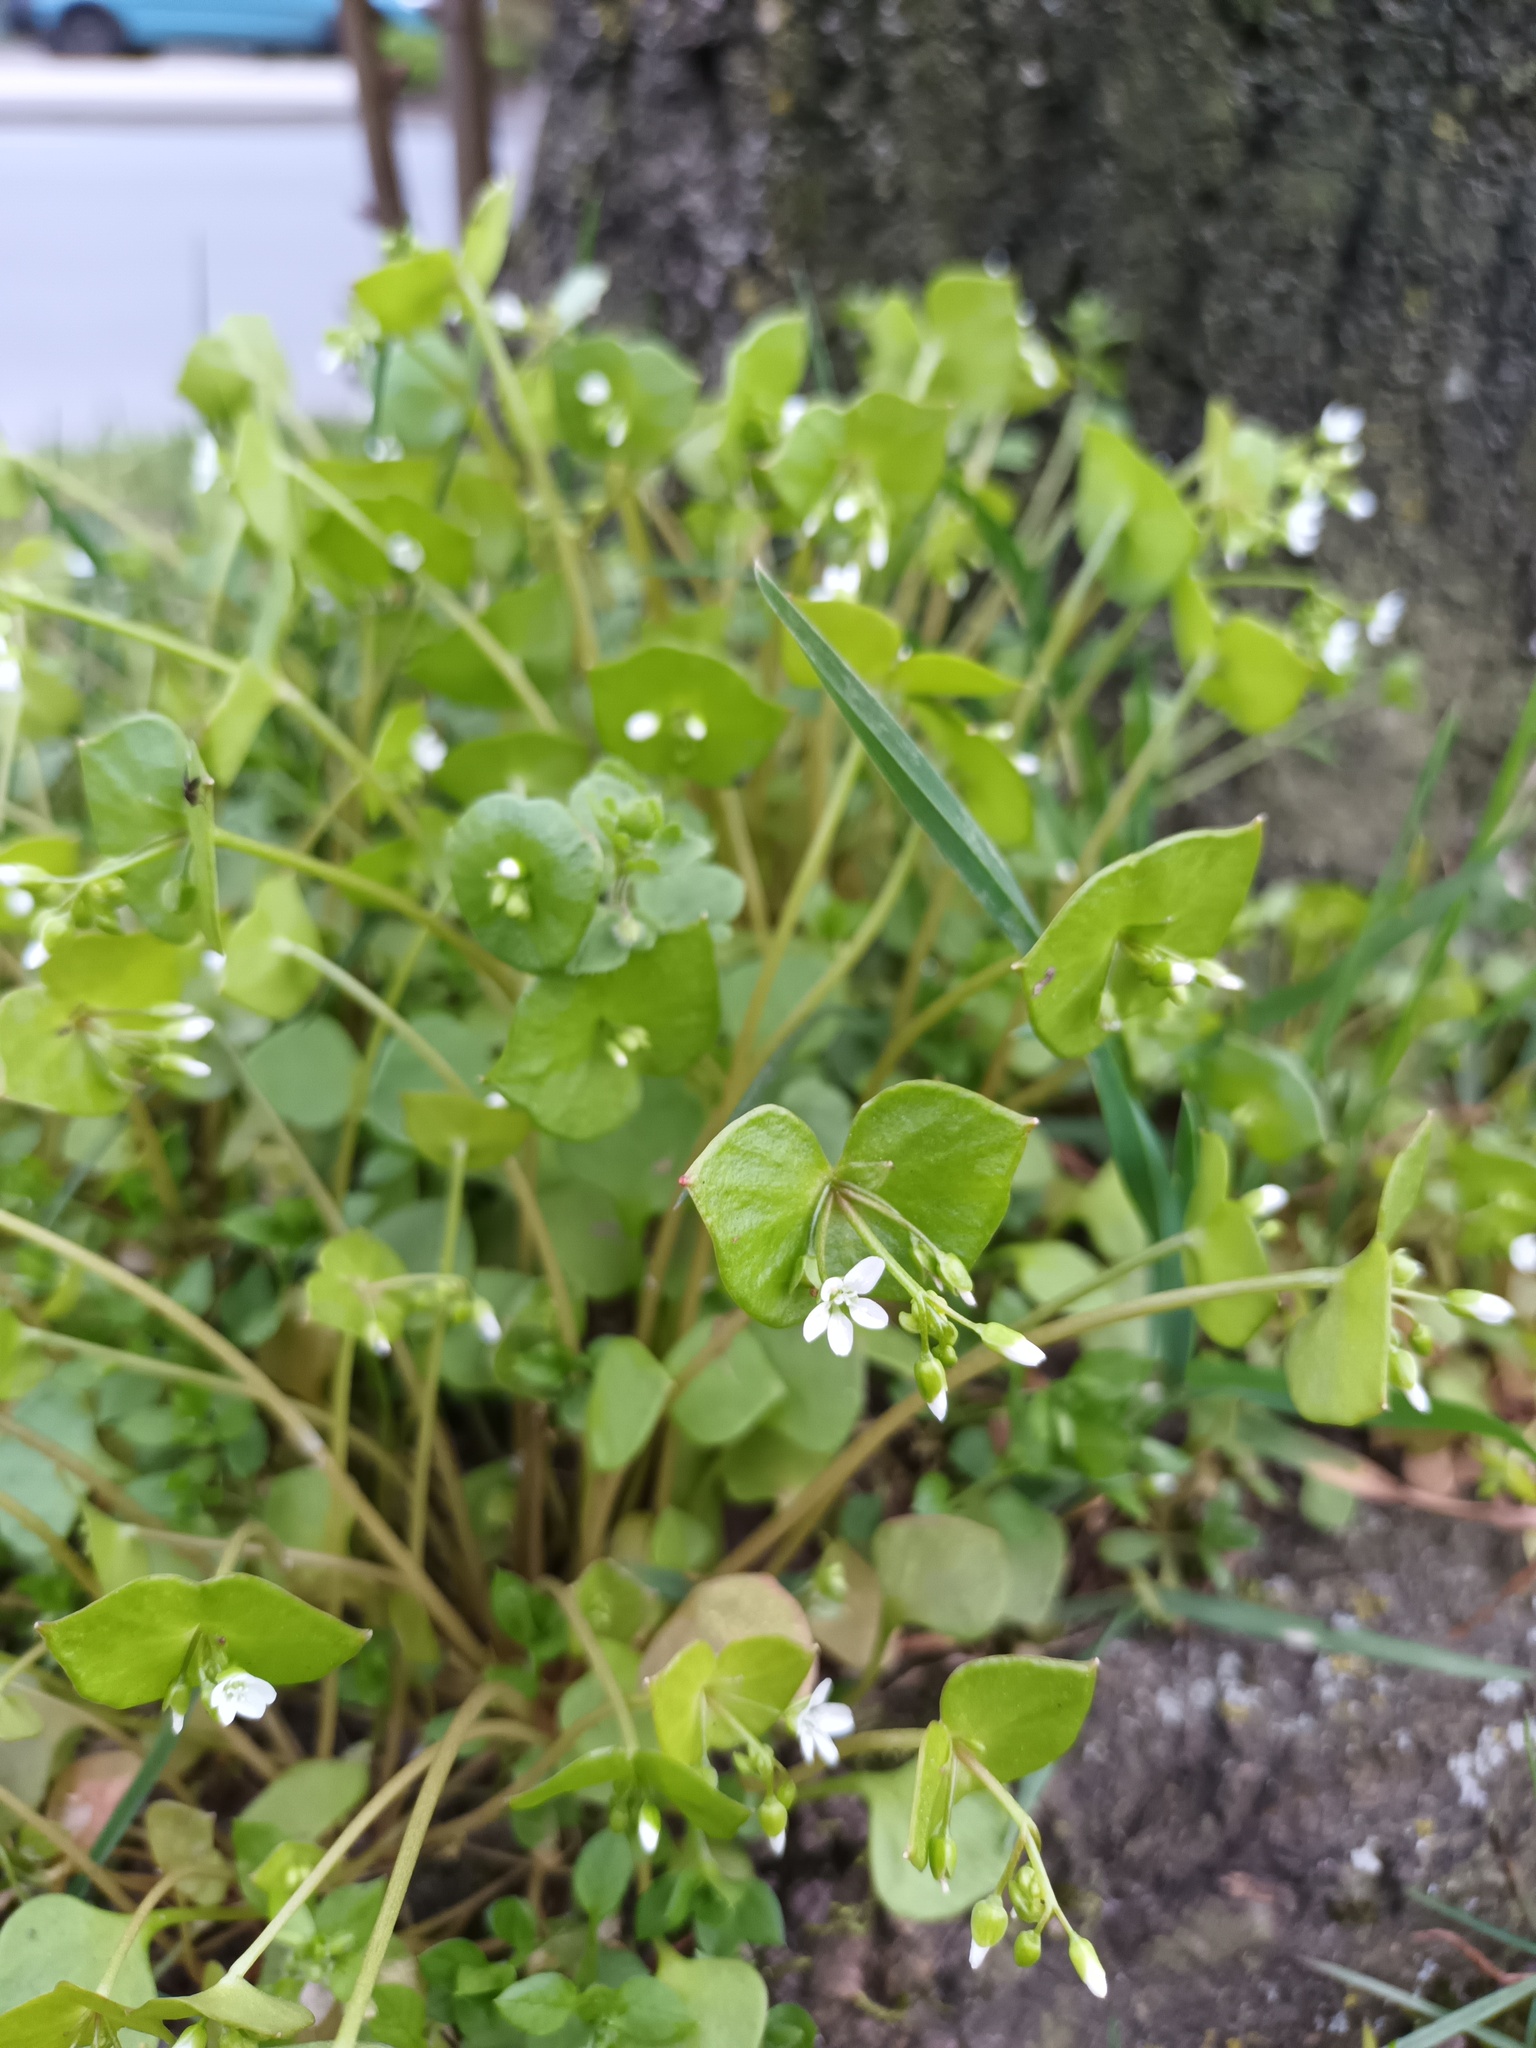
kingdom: Plantae
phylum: Tracheophyta
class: Magnoliopsida
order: Caryophyllales
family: Montiaceae
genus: Claytonia
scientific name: Claytonia perfoliata
